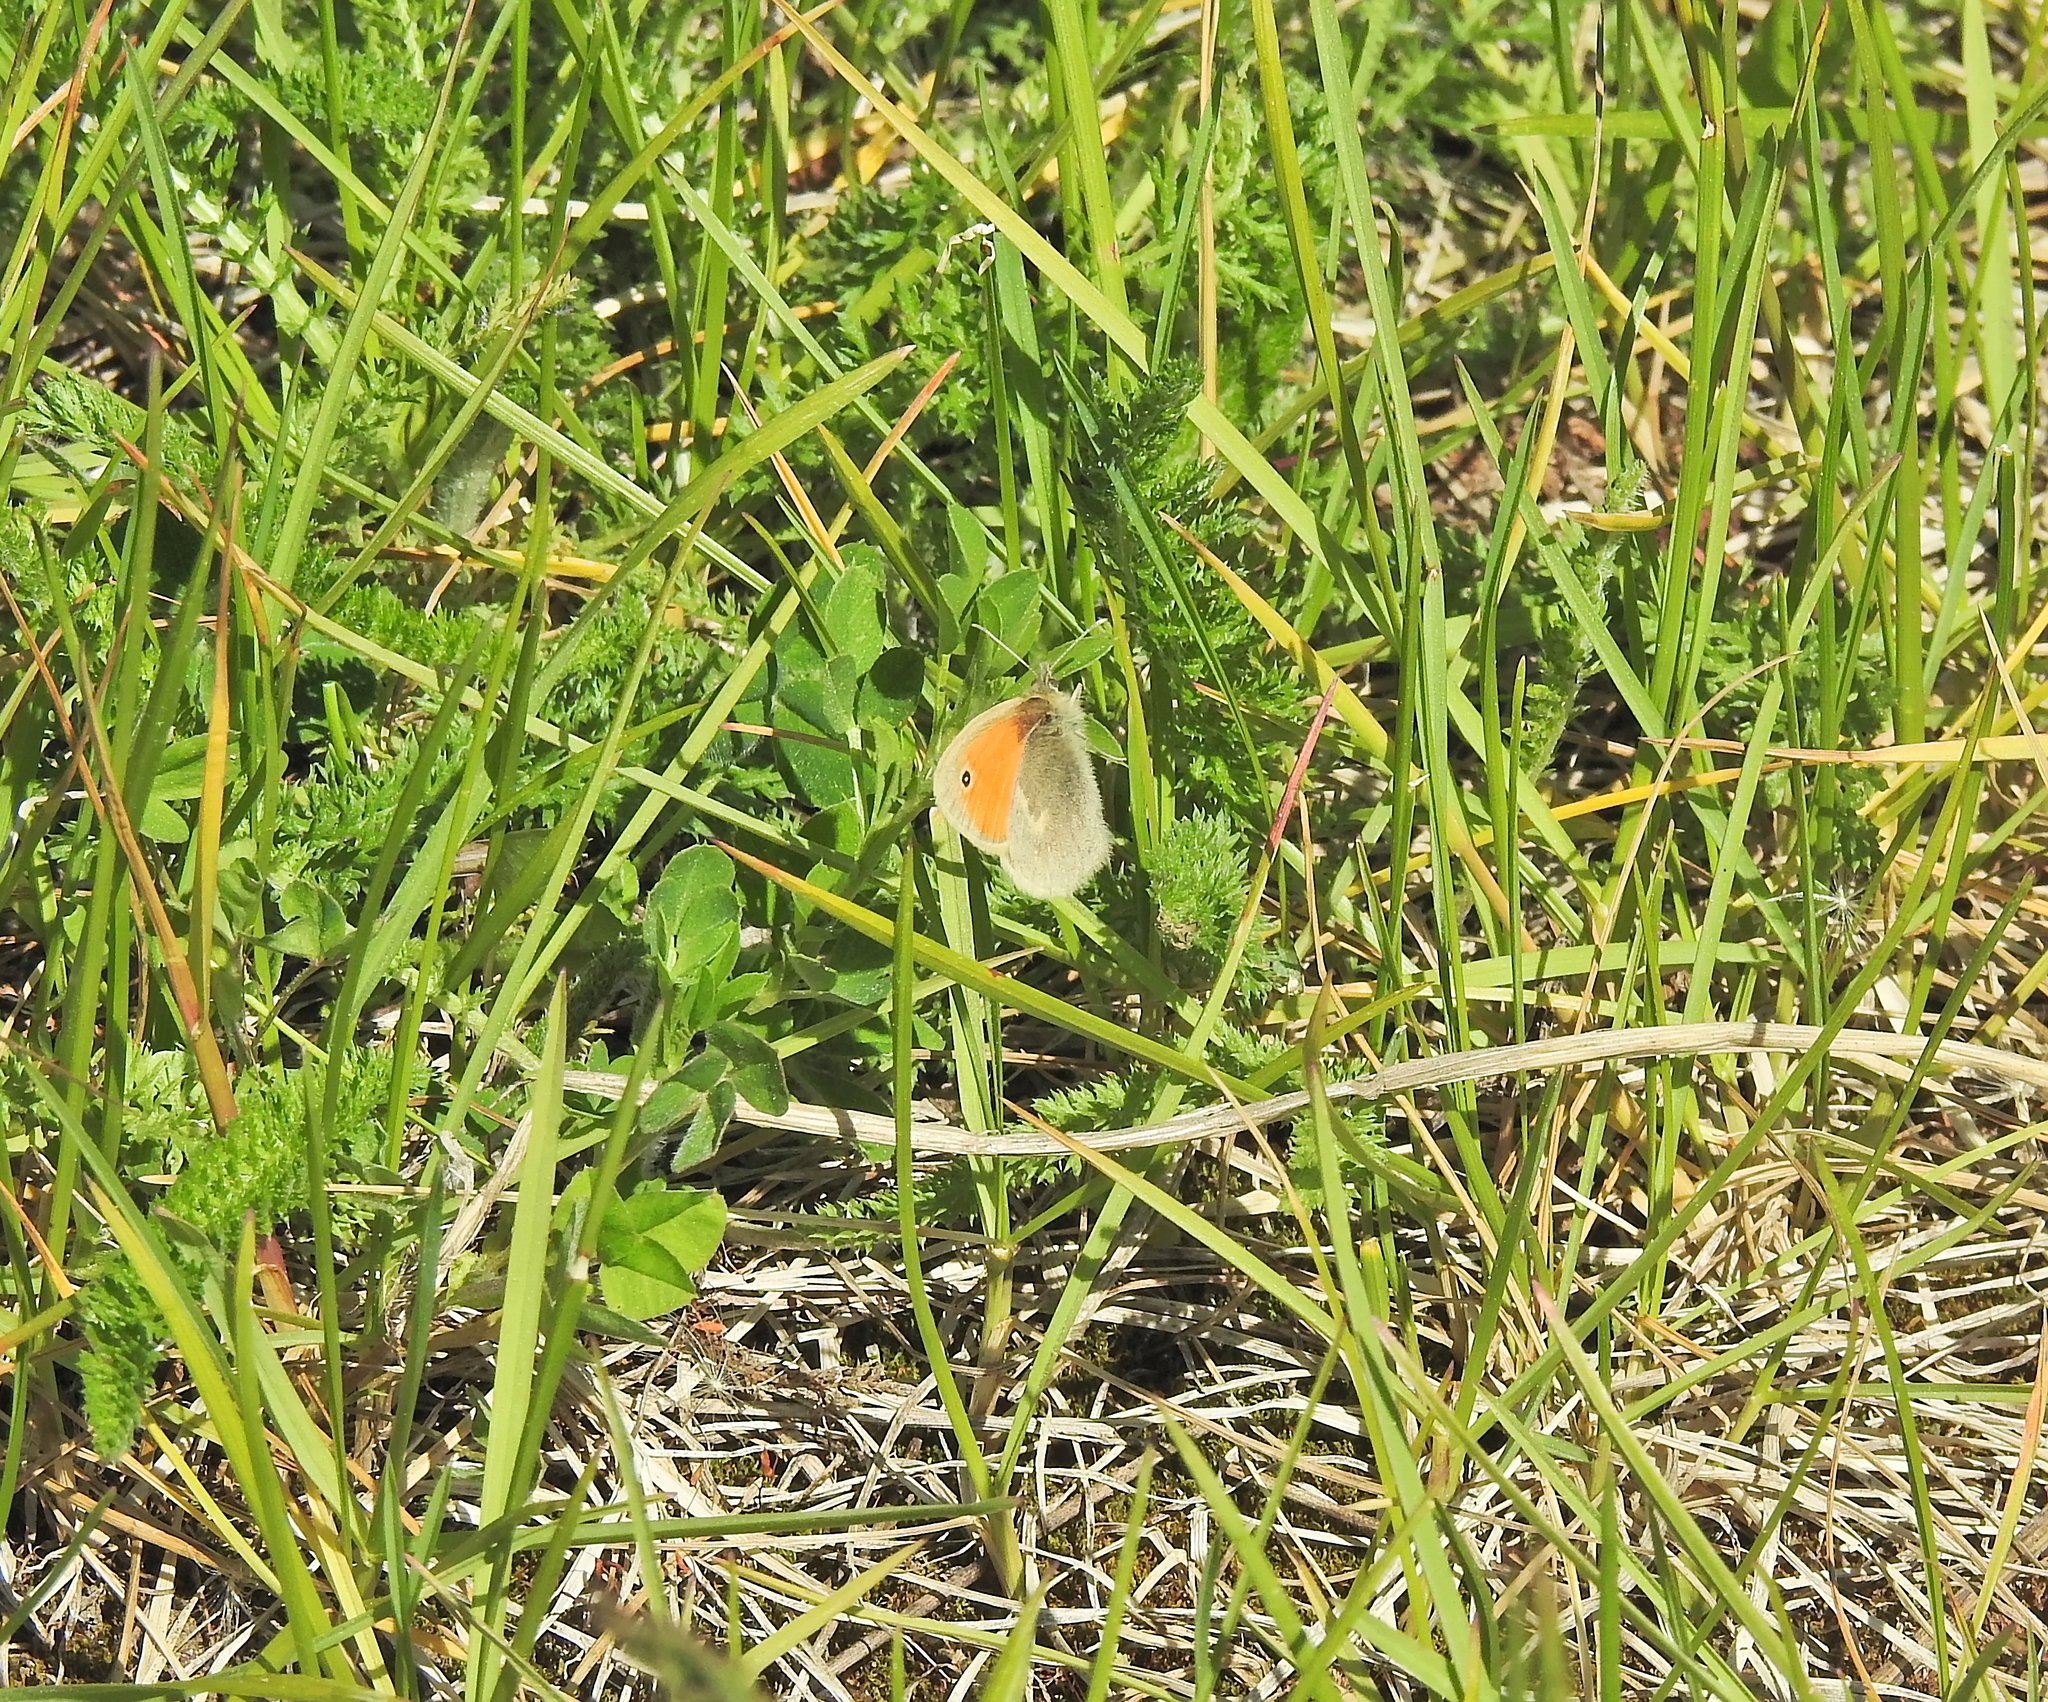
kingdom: Animalia
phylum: Arthropoda
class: Insecta
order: Lepidoptera
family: Nymphalidae
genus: Coenonympha
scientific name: Coenonympha pamphilus
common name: Small heath
